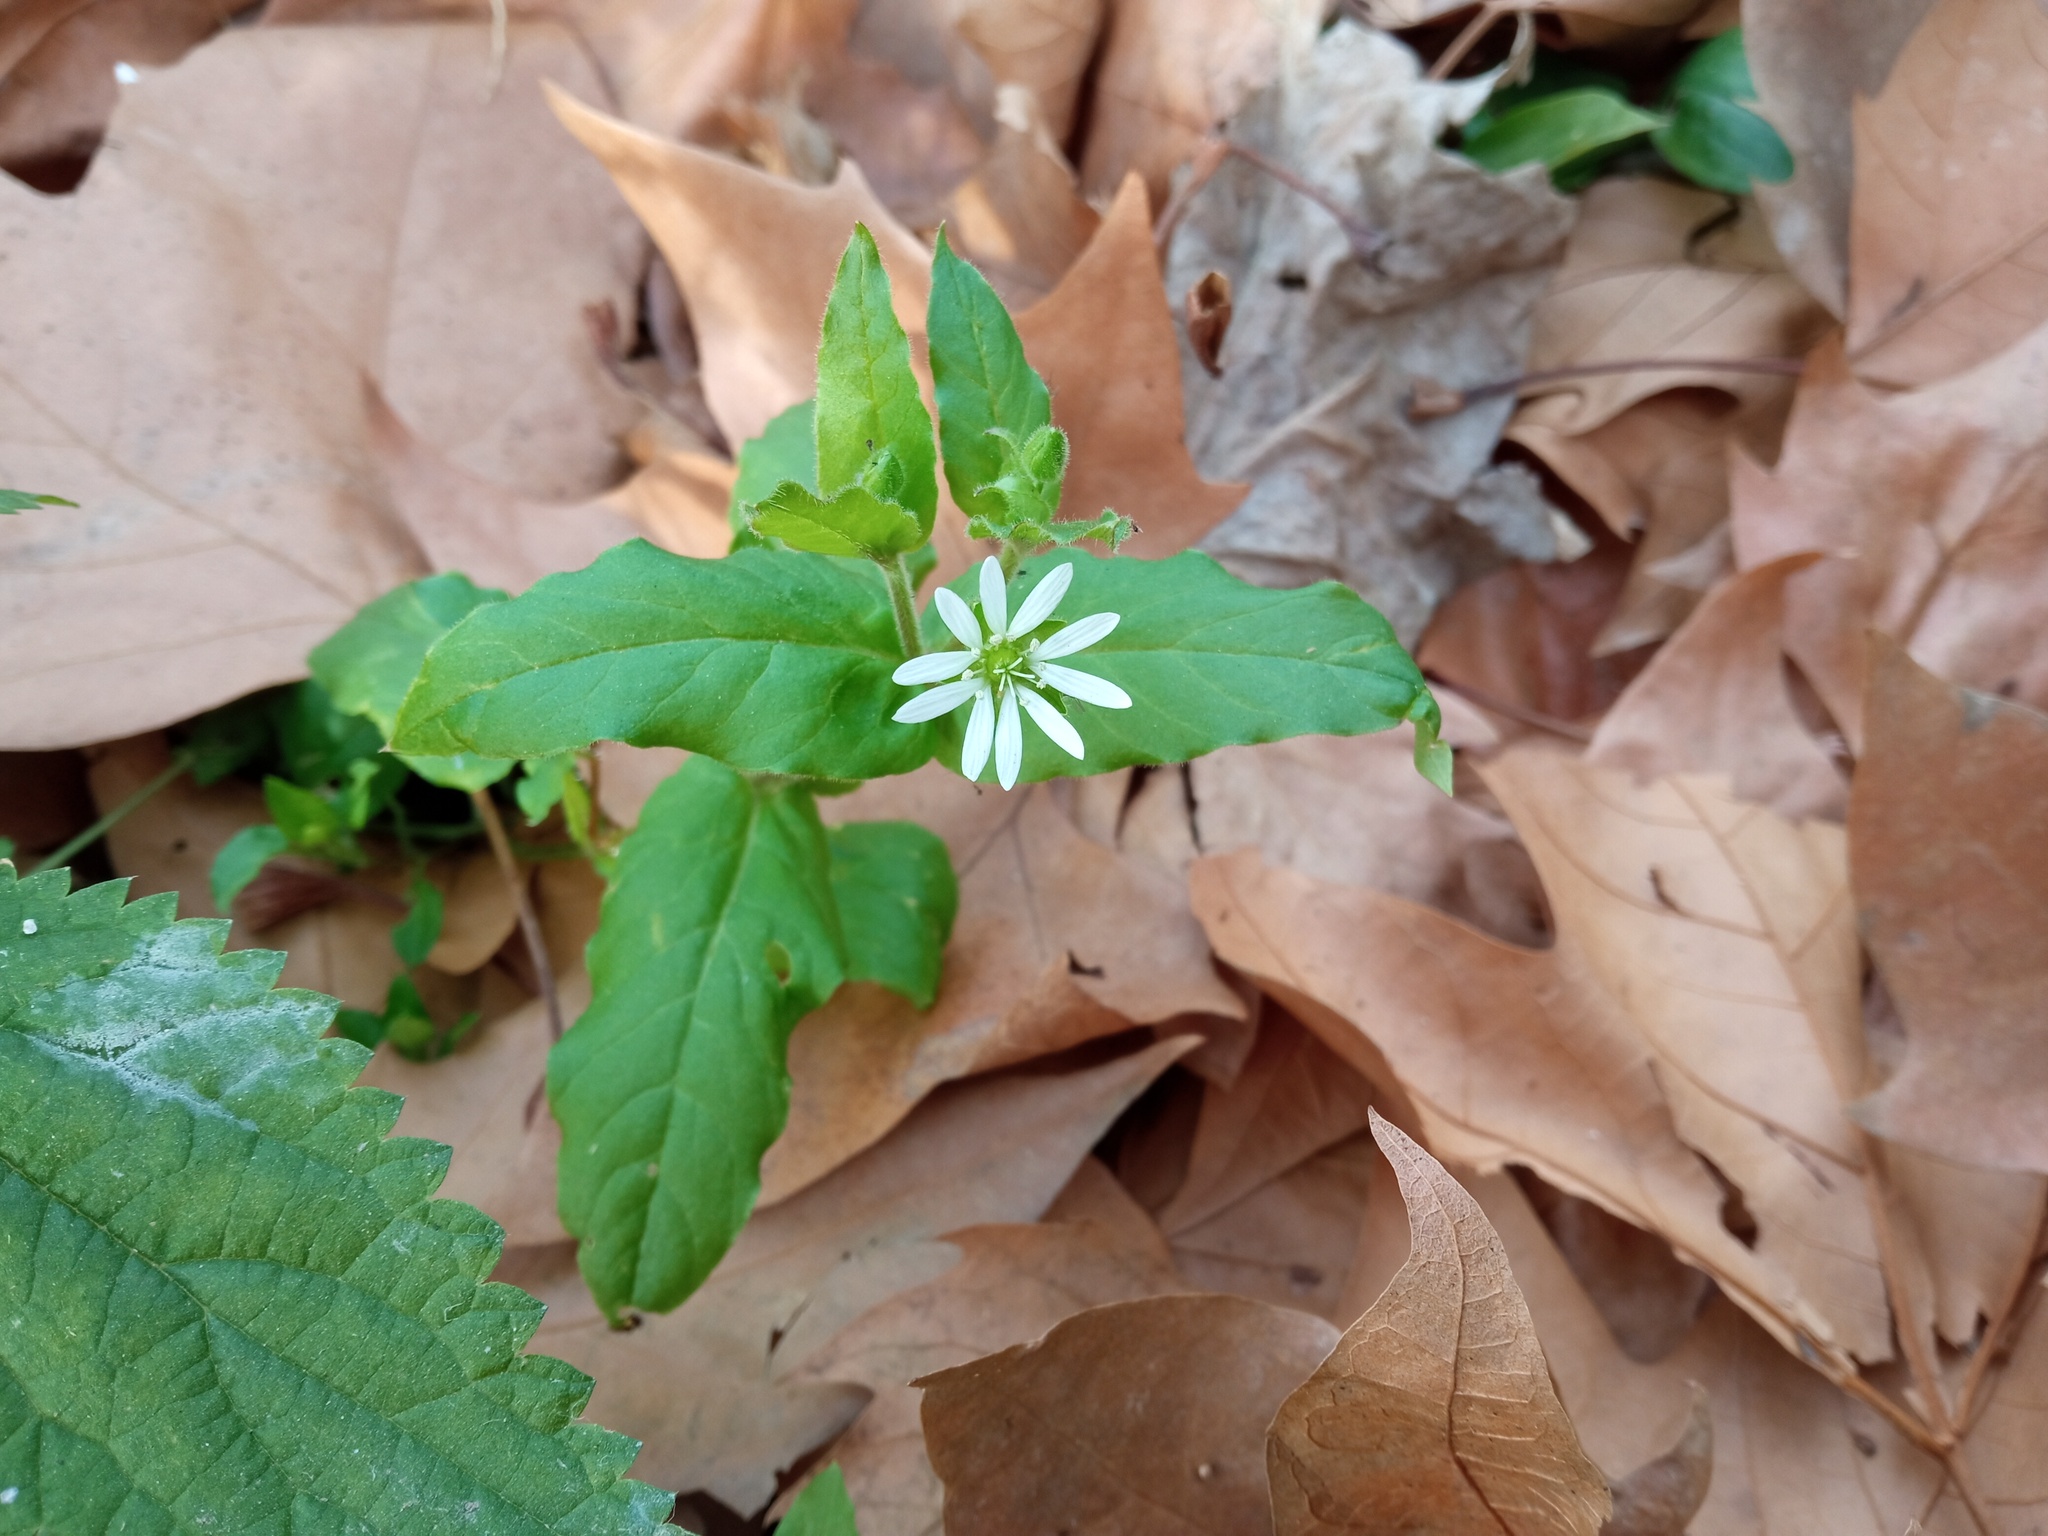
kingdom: Plantae
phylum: Tracheophyta
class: Magnoliopsida
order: Caryophyllales
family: Caryophyllaceae
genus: Stellaria
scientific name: Stellaria aquatica
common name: Water chickweed
